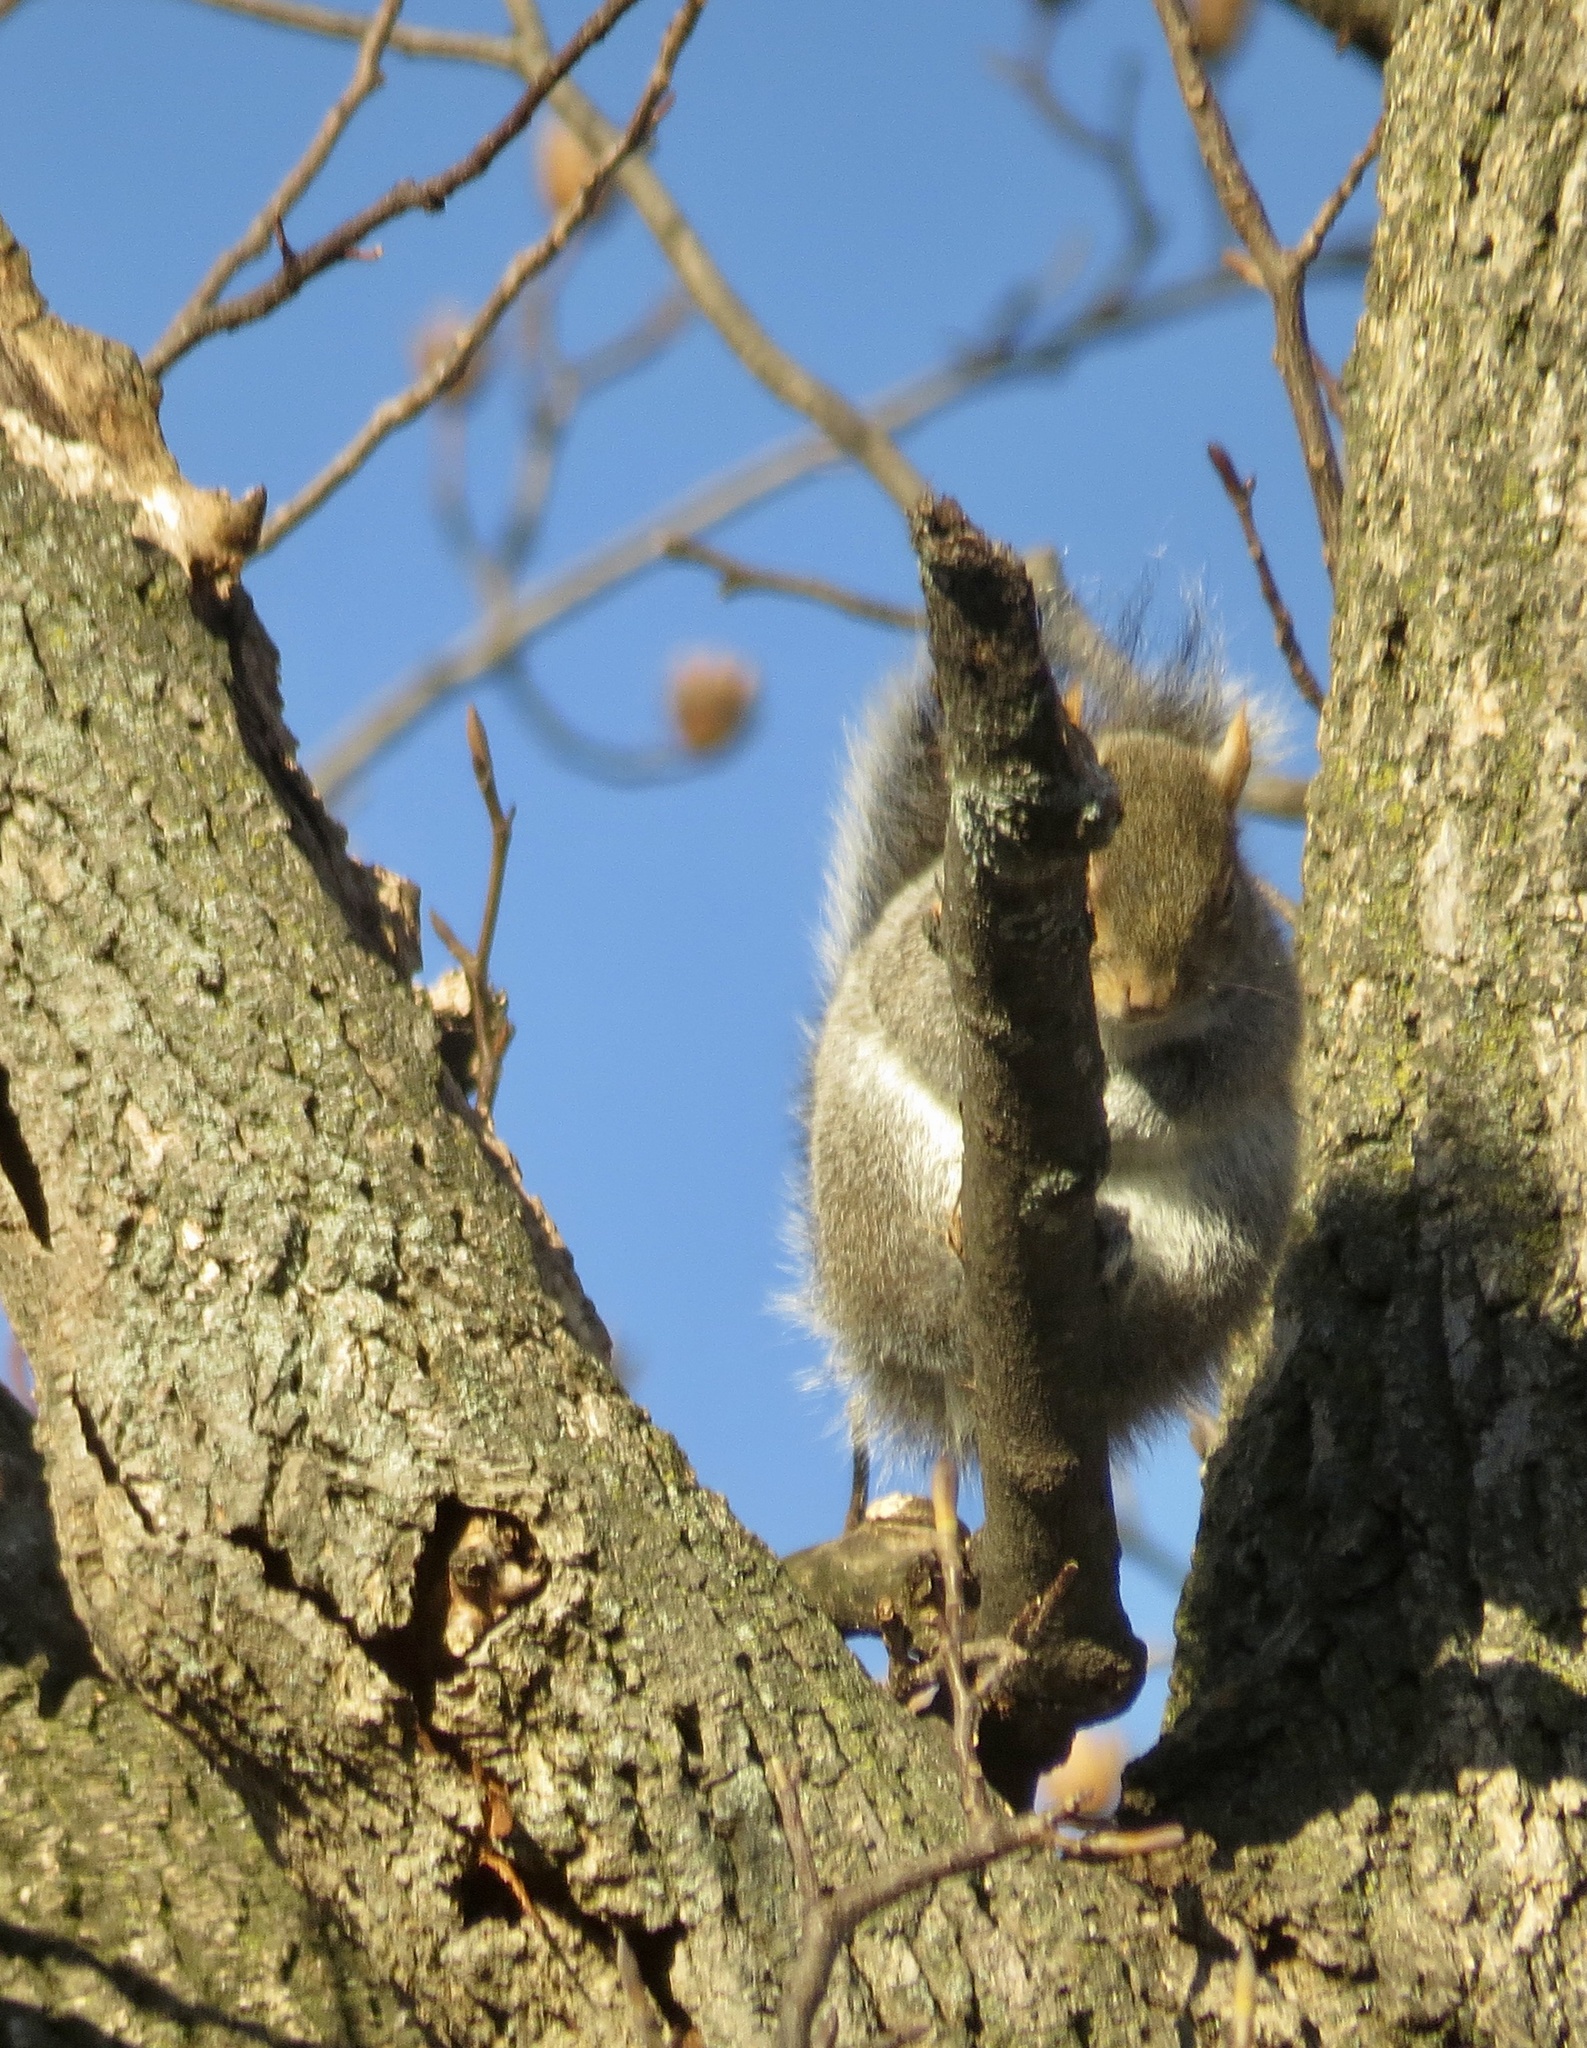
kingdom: Animalia
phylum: Chordata
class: Mammalia
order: Rodentia
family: Sciuridae
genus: Sciurus
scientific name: Sciurus carolinensis
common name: Eastern gray squirrel
